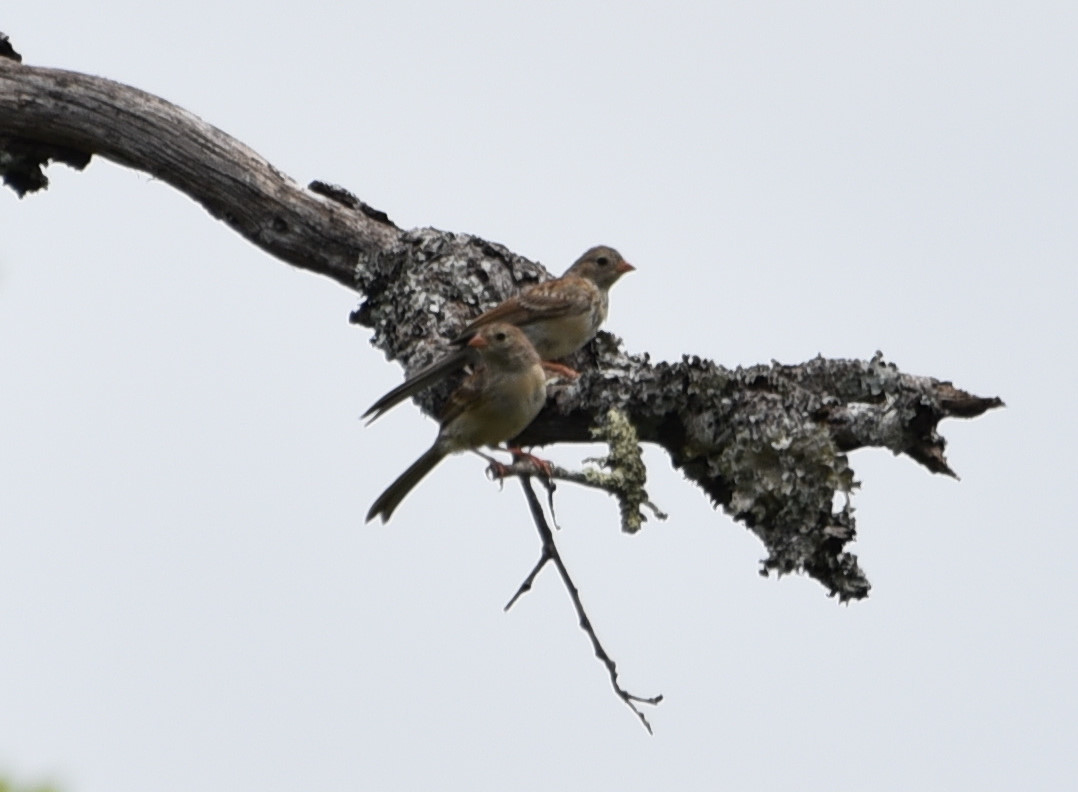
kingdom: Animalia
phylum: Chordata
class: Aves
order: Passeriformes
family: Passerellidae
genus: Spizella
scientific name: Spizella pusilla
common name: Field sparrow
